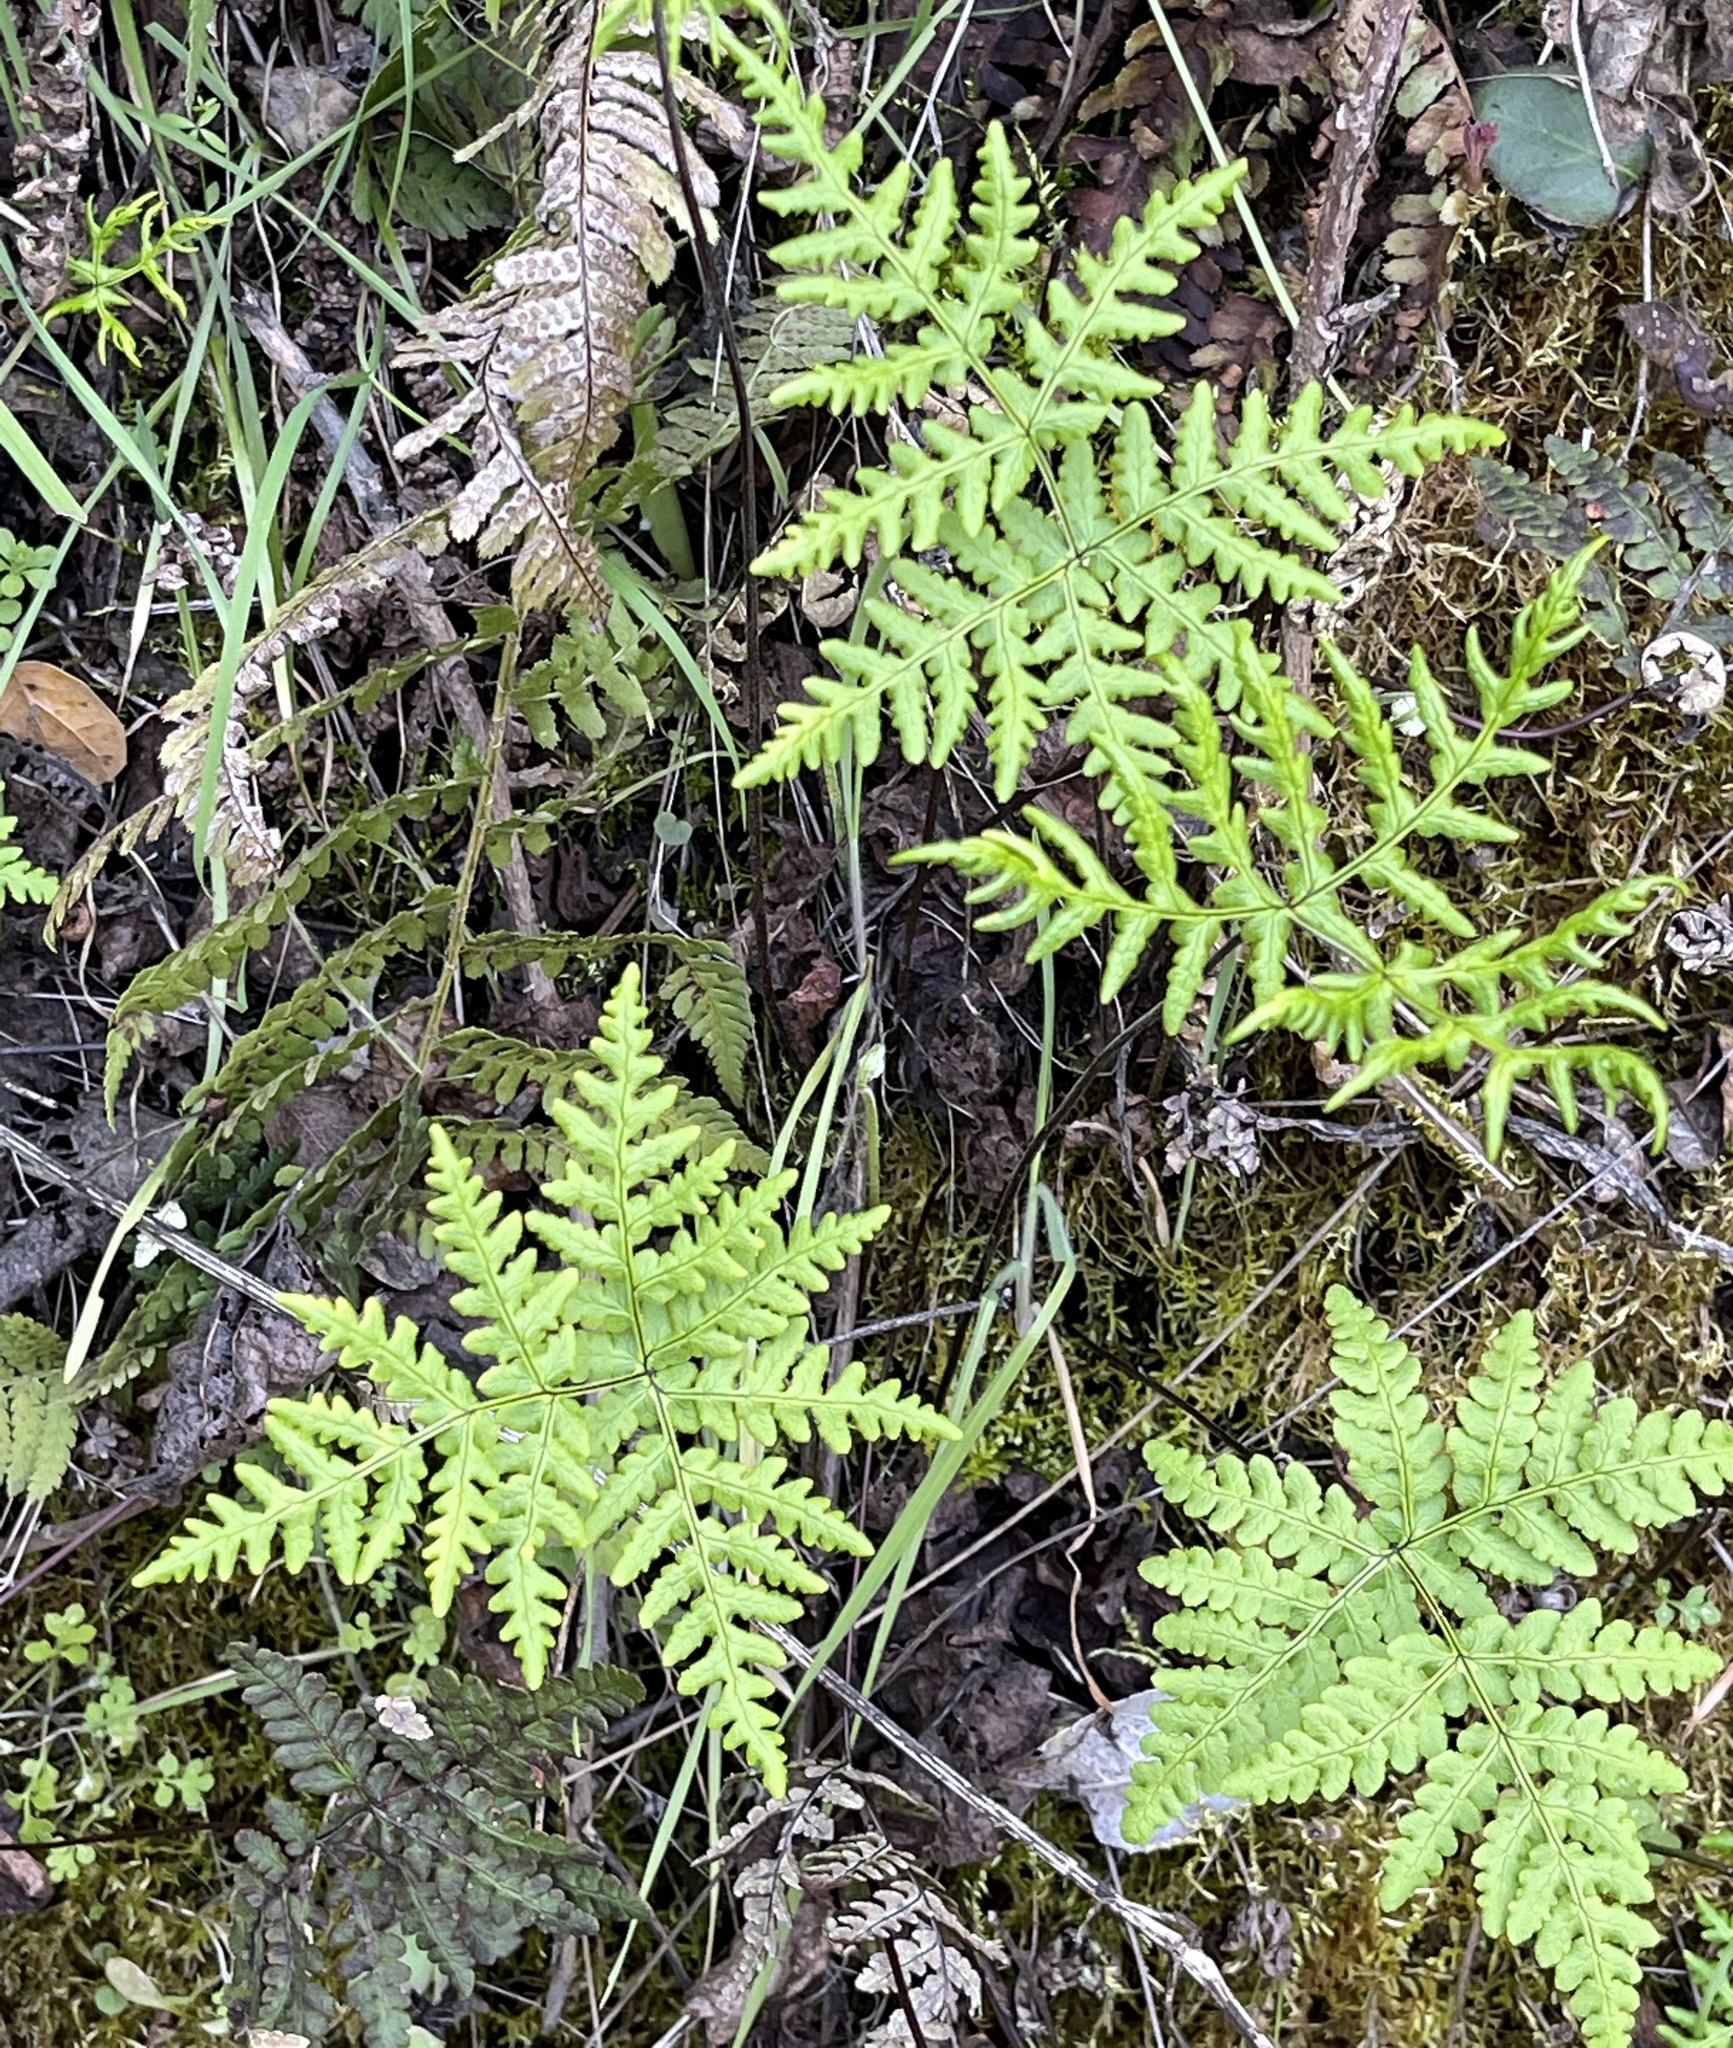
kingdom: Plantae
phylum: Tracheophyta
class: Polypodiopsida
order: Polypodiales
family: Pteridaceae
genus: Pentagramma
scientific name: Pentagramma triangularis
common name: Gold fern
